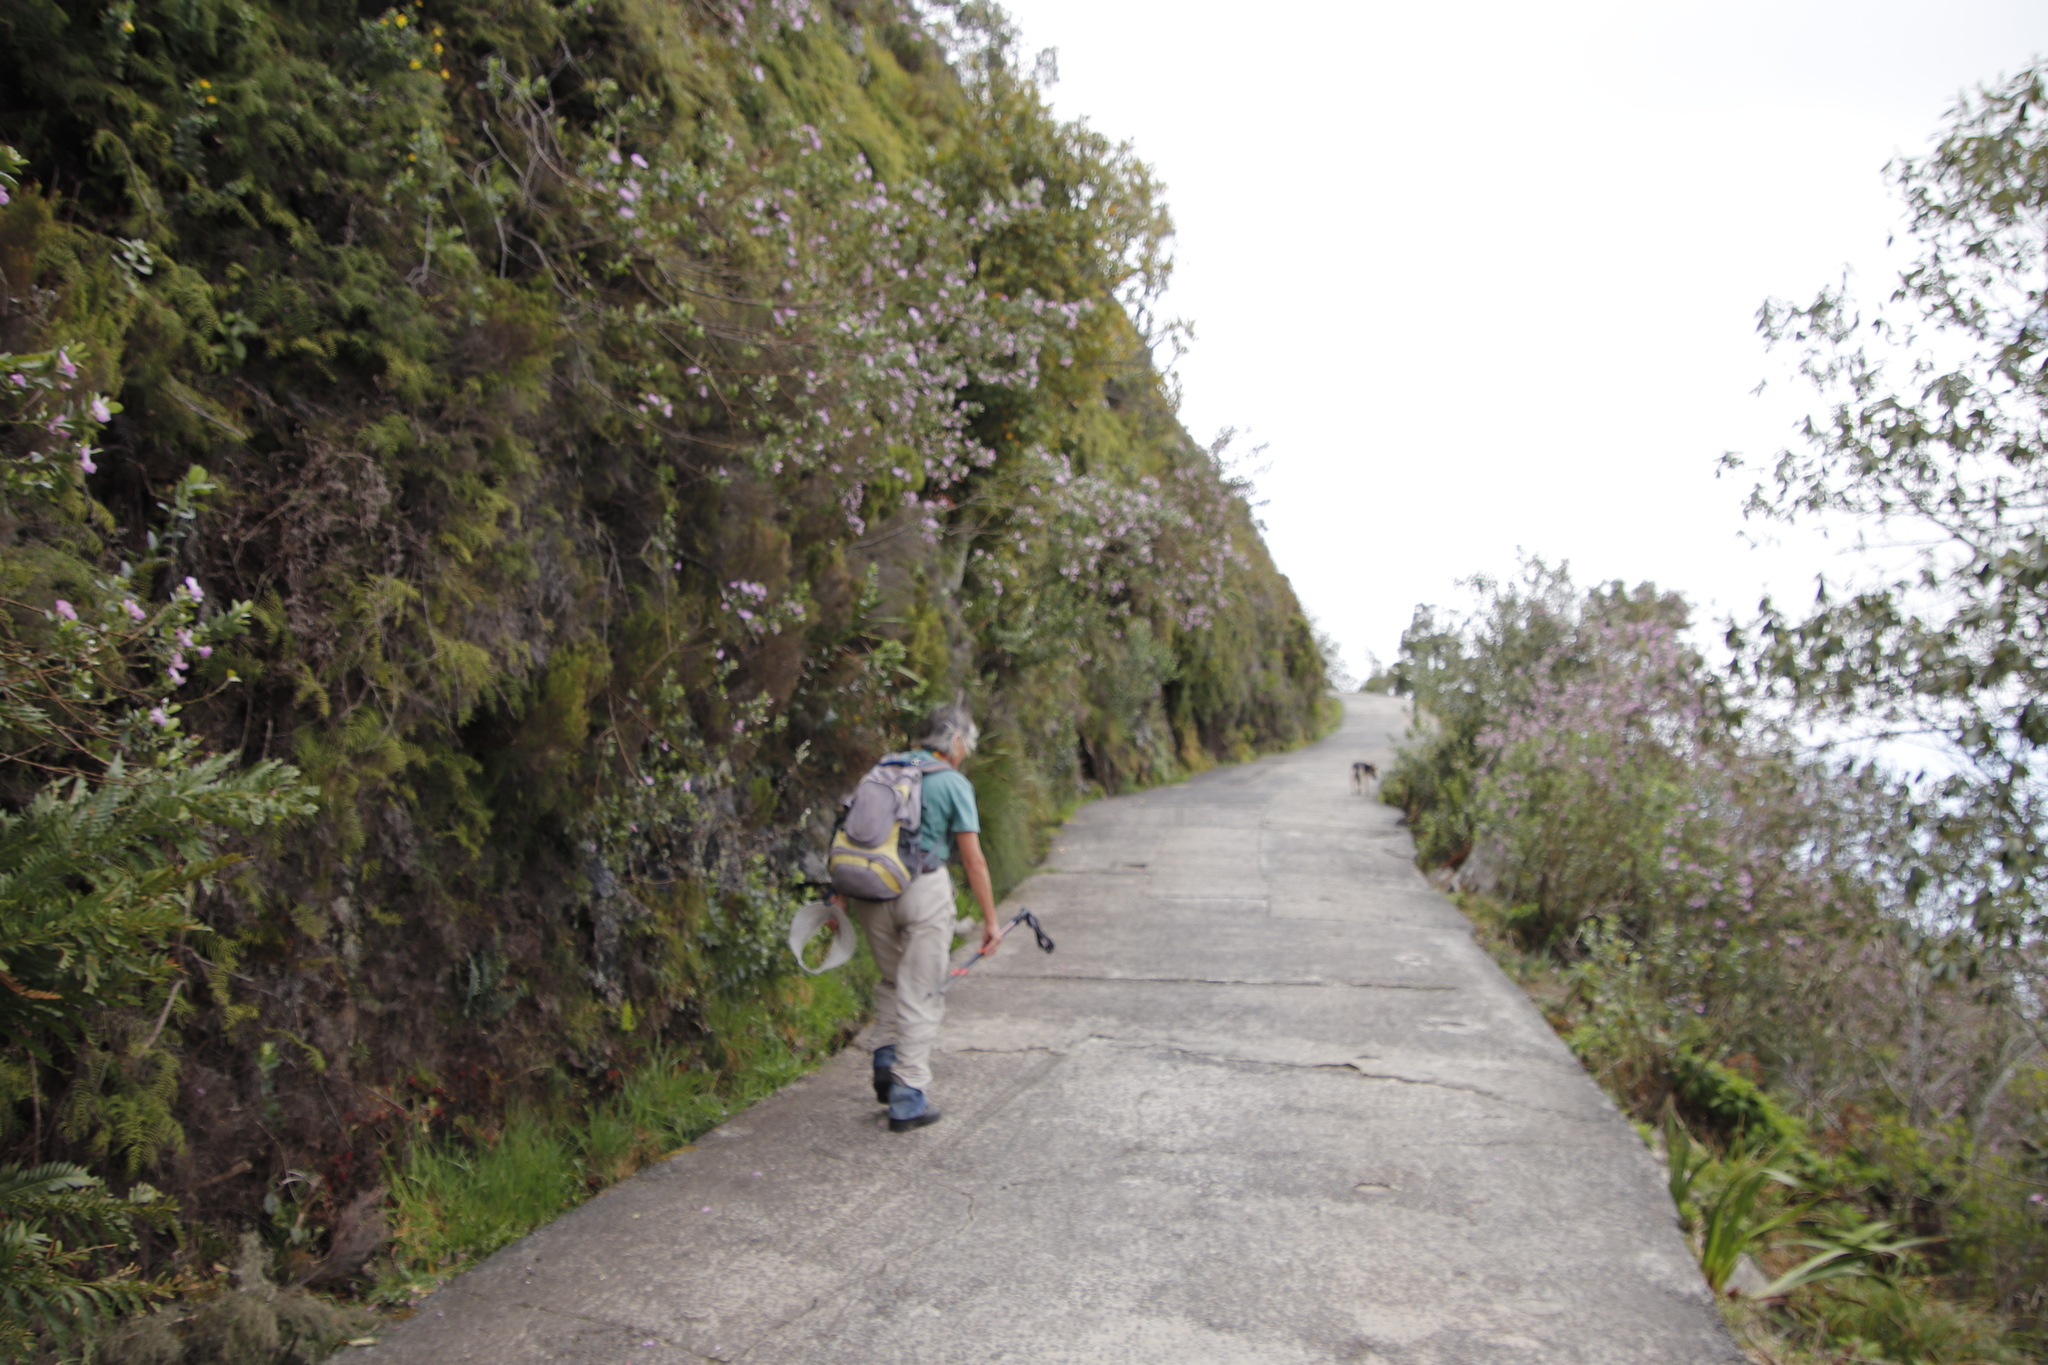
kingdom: Plantae
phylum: Tracheophyta
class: Magnoliopsida
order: Fabales
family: Fabaceae
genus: Podalyria
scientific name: Podalyria calyptrata
